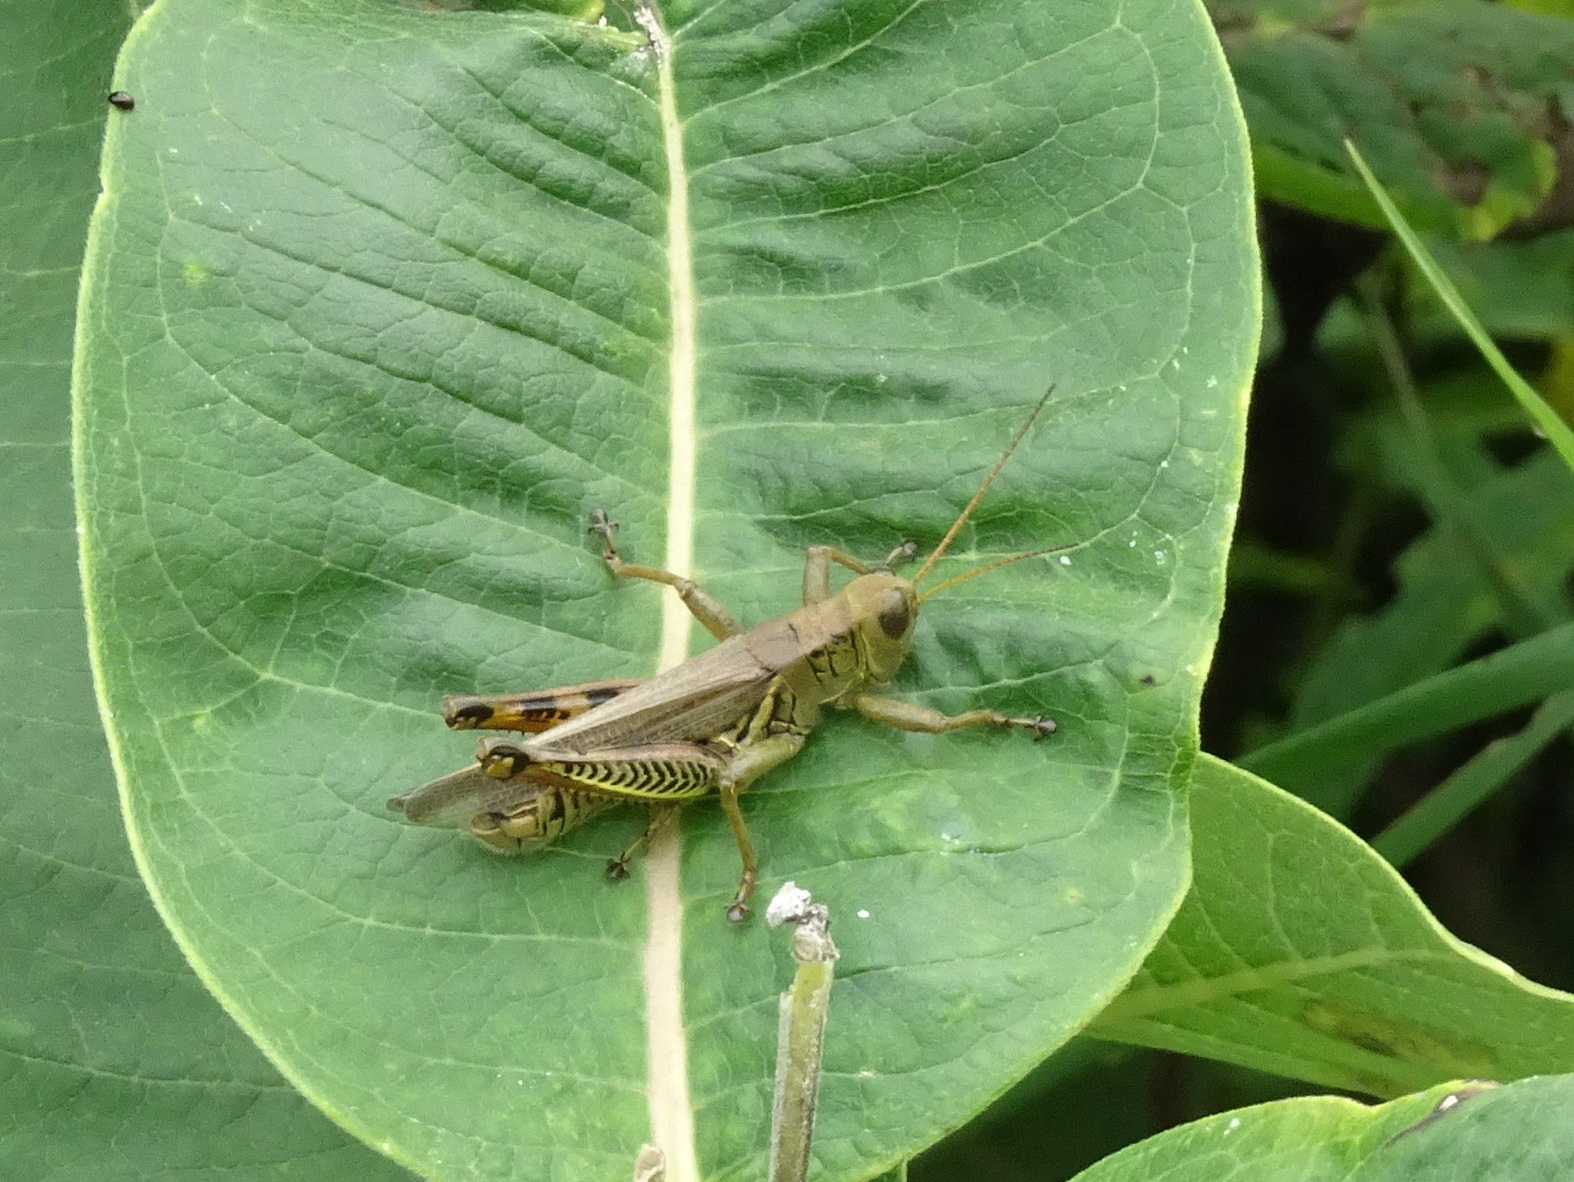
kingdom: Animalia
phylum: Arthropoda
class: Insecta
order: Orthoptera
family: Acrididae
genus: Melanoplus
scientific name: Melanoplus differentialis
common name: Differential grasshopper
